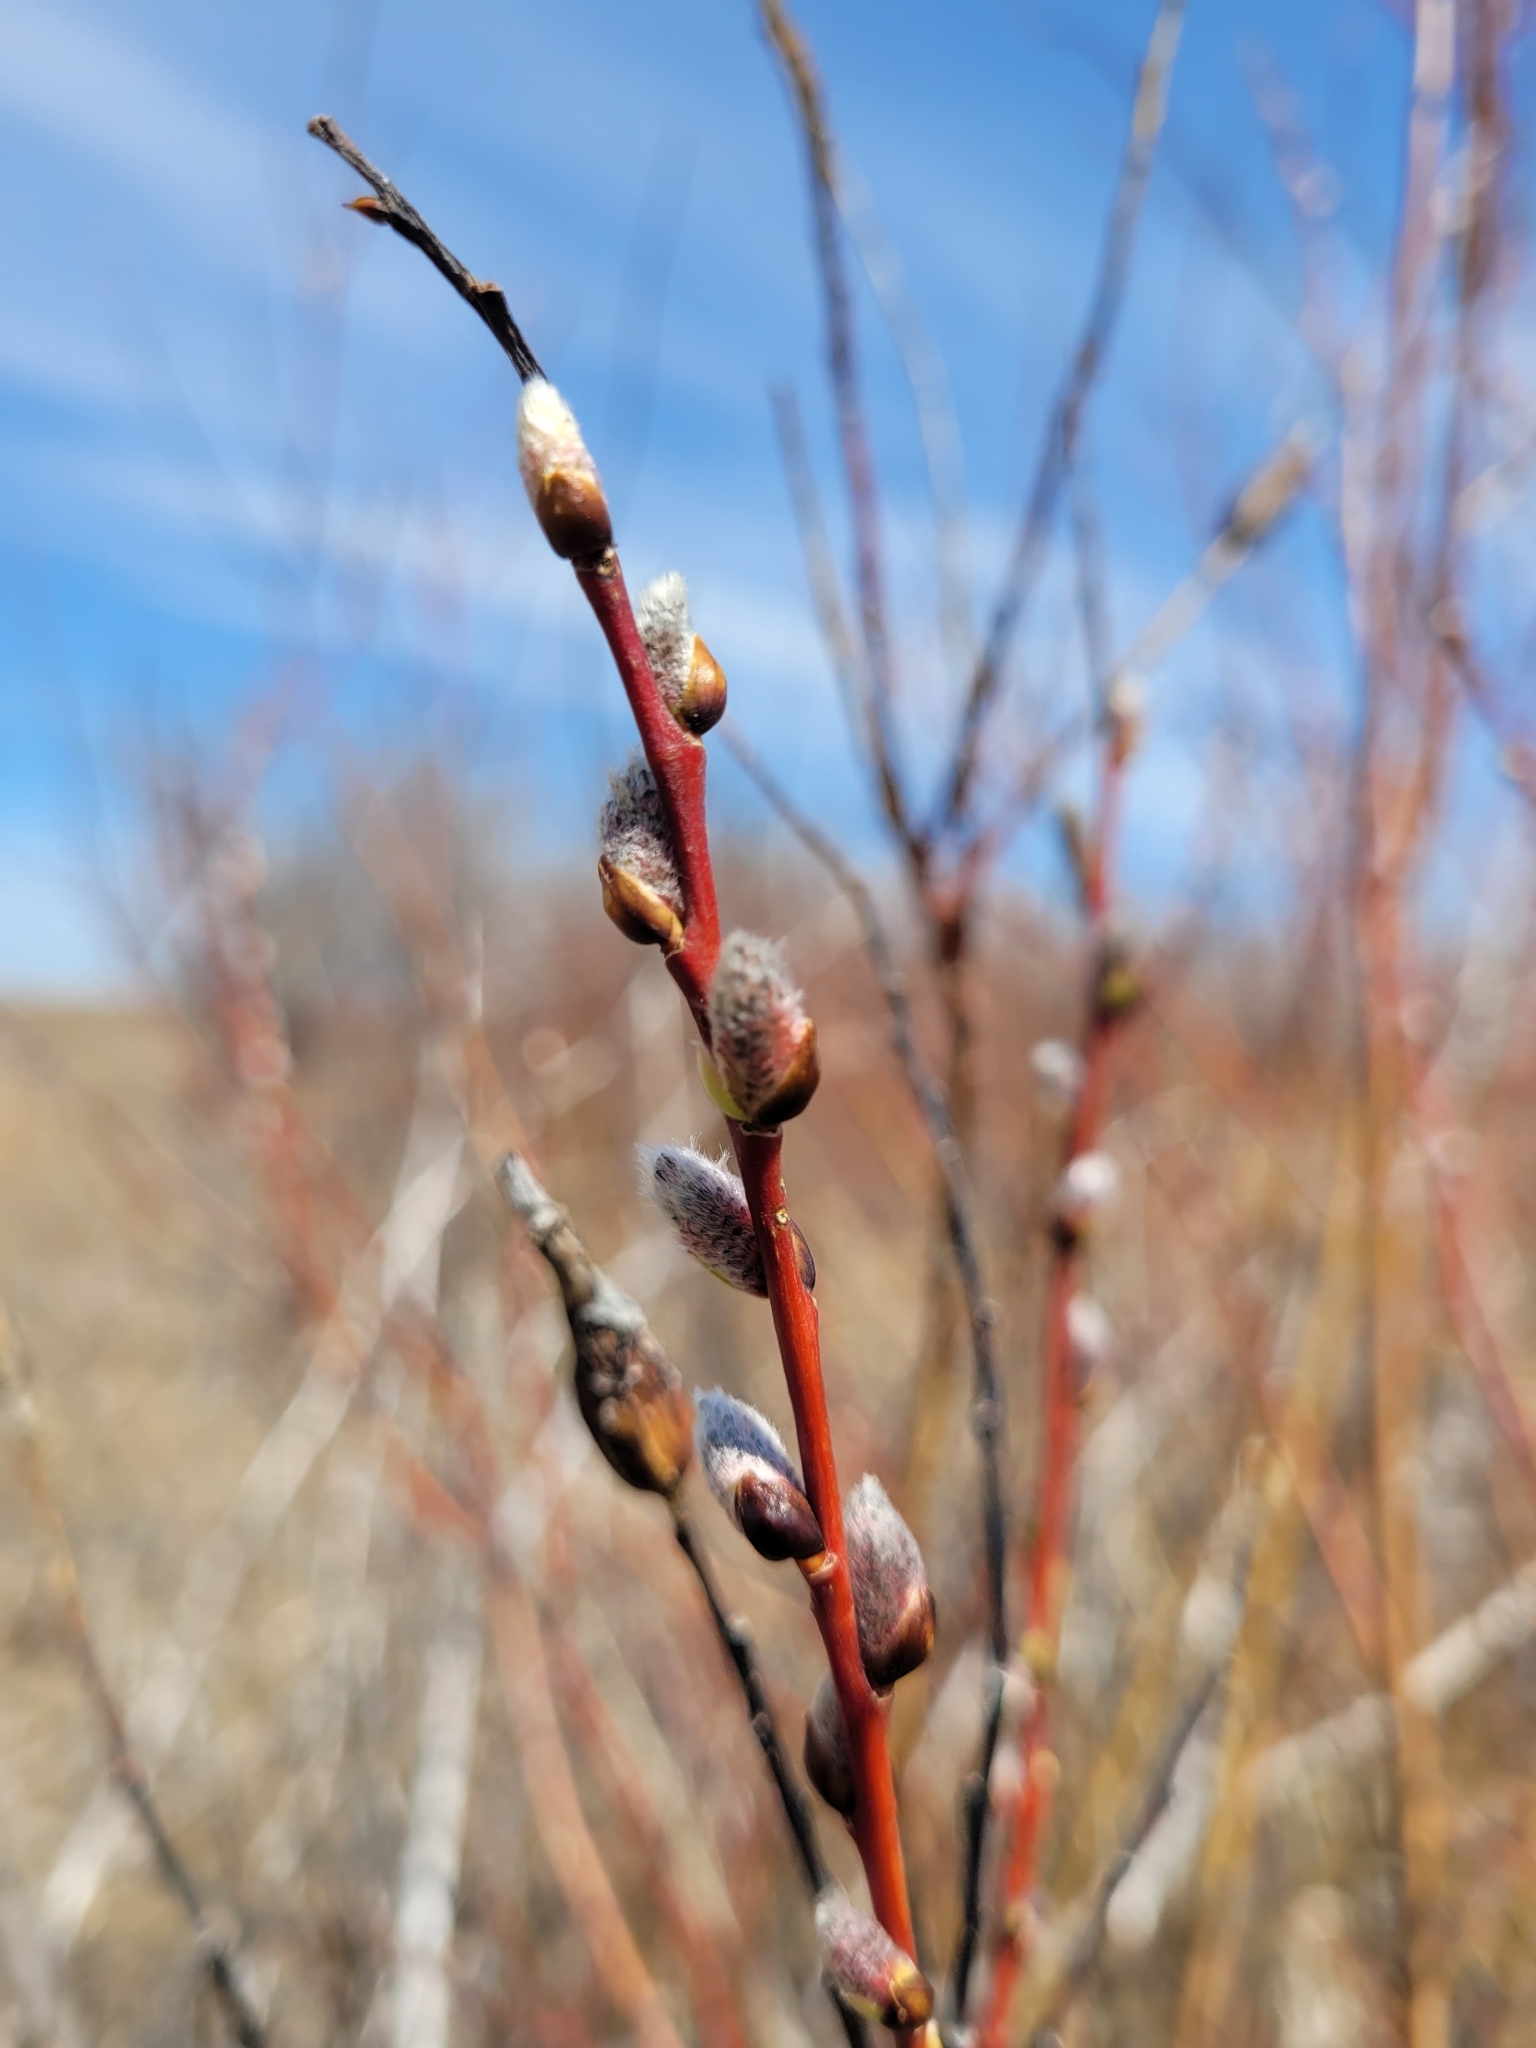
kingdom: Animalia
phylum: Arthropoda
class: Insecta
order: Diptera
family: Cecidomyiidae
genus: Thecodiplosis
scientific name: Thecodiplosis pinirigidae
